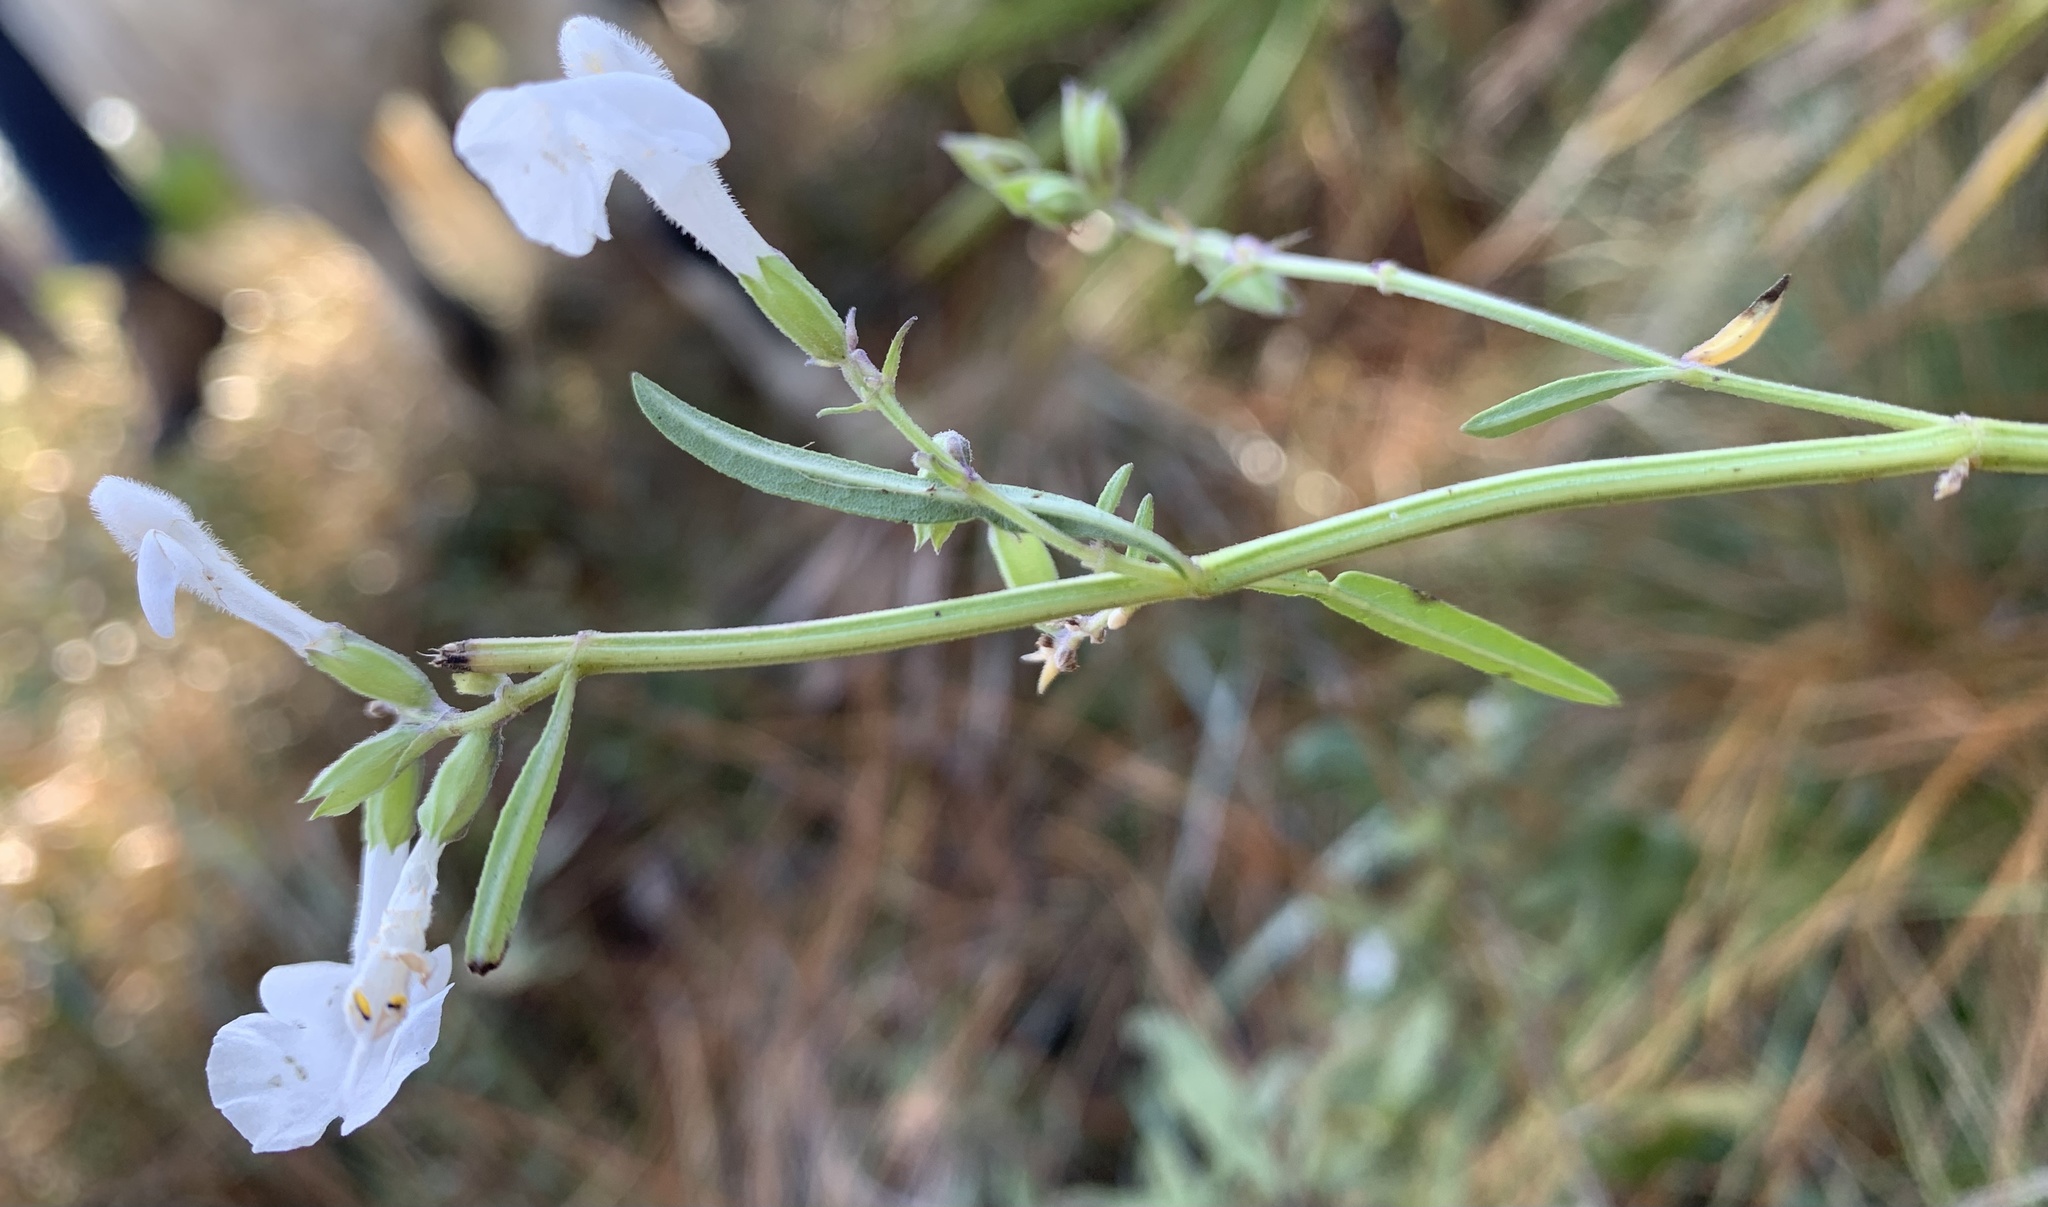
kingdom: Plantae
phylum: Tracheophyta
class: Magnoliopsida
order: Lamiales
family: Lamiaceae
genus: Salvia
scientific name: Salvia azurea
